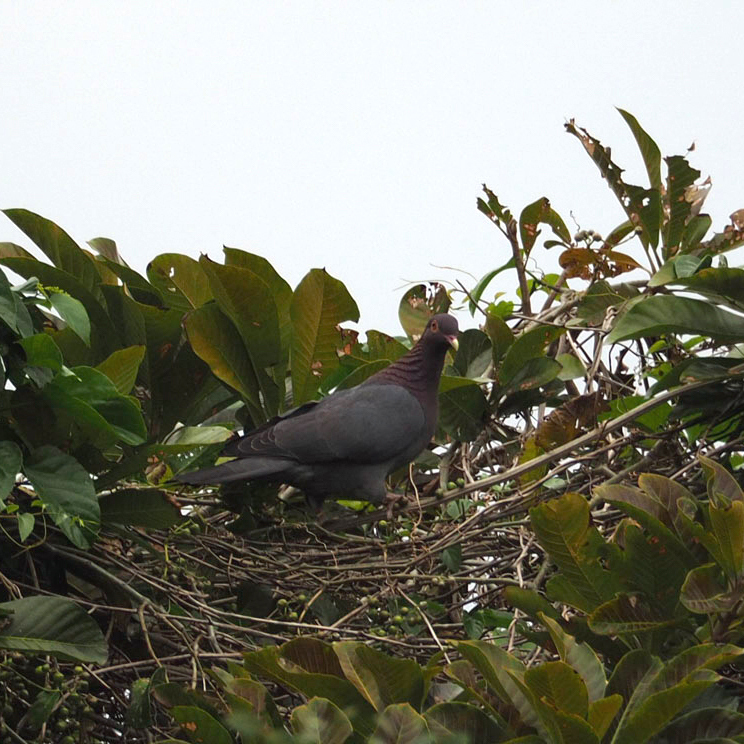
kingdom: Animalia
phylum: Chordata
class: Aves
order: Columbiformes
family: Columbidae
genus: Patagioenas
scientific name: Patagioenas squamosa
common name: Scaly-naped pigeon
